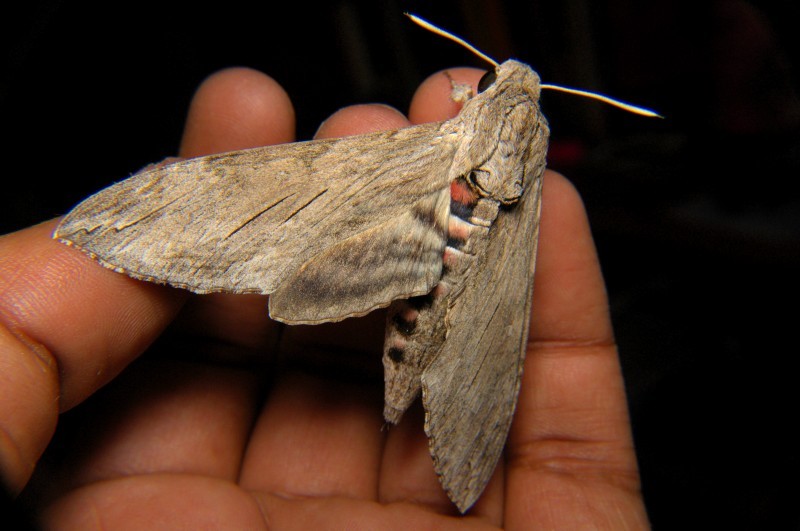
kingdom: Animalia
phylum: Arthropoda
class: Insecta
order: Lepidoptera
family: Sphingidae
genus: Agrius
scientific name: Agrius convolvuli
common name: Convolvulus hawkmoth
